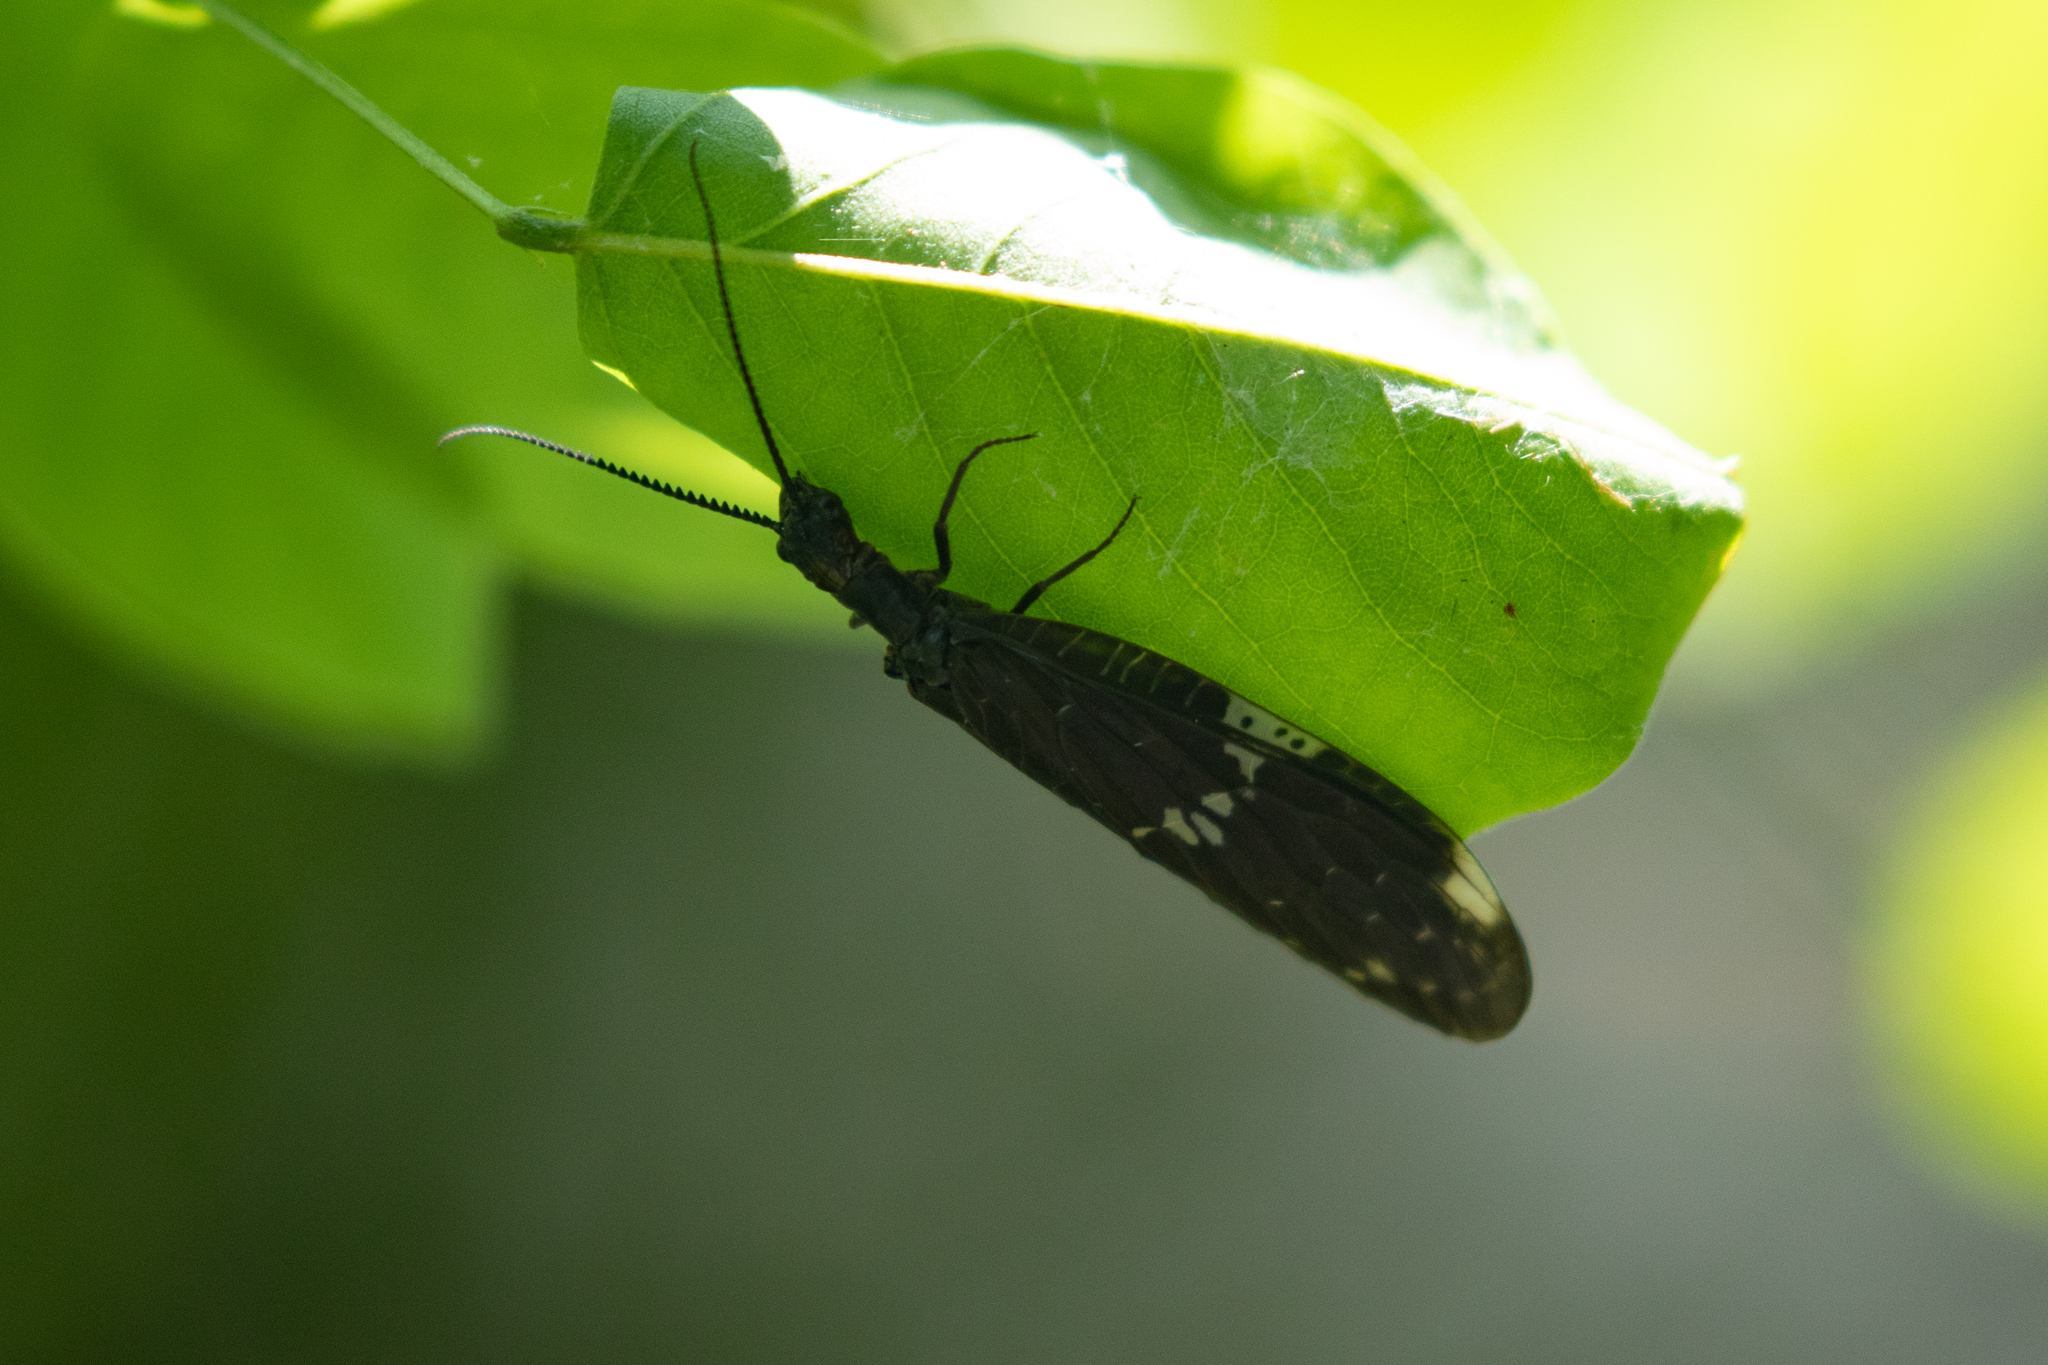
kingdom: Animalia
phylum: Arthropoda
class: Insecta
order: Megaloptera
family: Corydalidae
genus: Nigronia
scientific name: Nigronia serricornis
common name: Serrate dark fishfly
